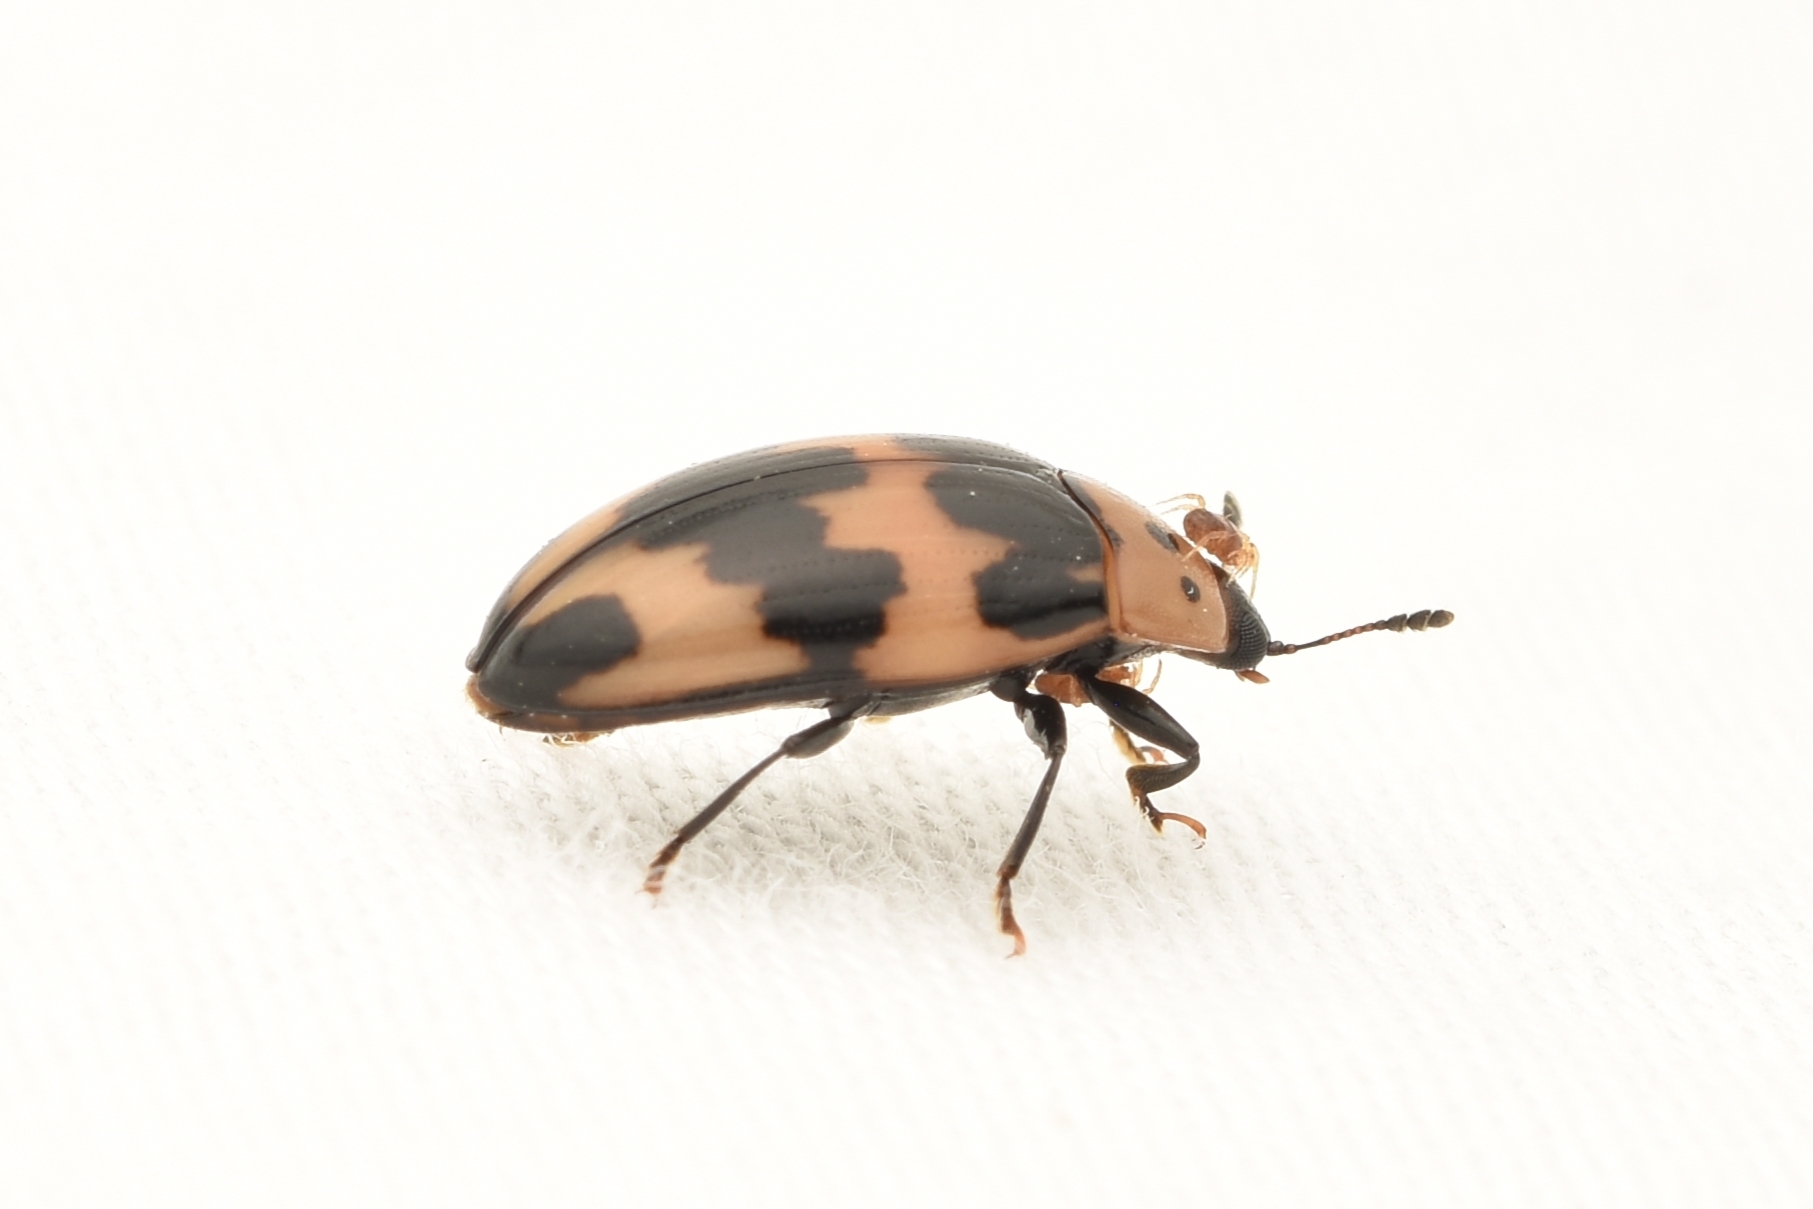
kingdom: Animalia
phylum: Arthropoda
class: Insecta
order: Coleoptera
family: Erotylidae
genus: Ischyrus
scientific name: Ischyrus quadripunctatus
